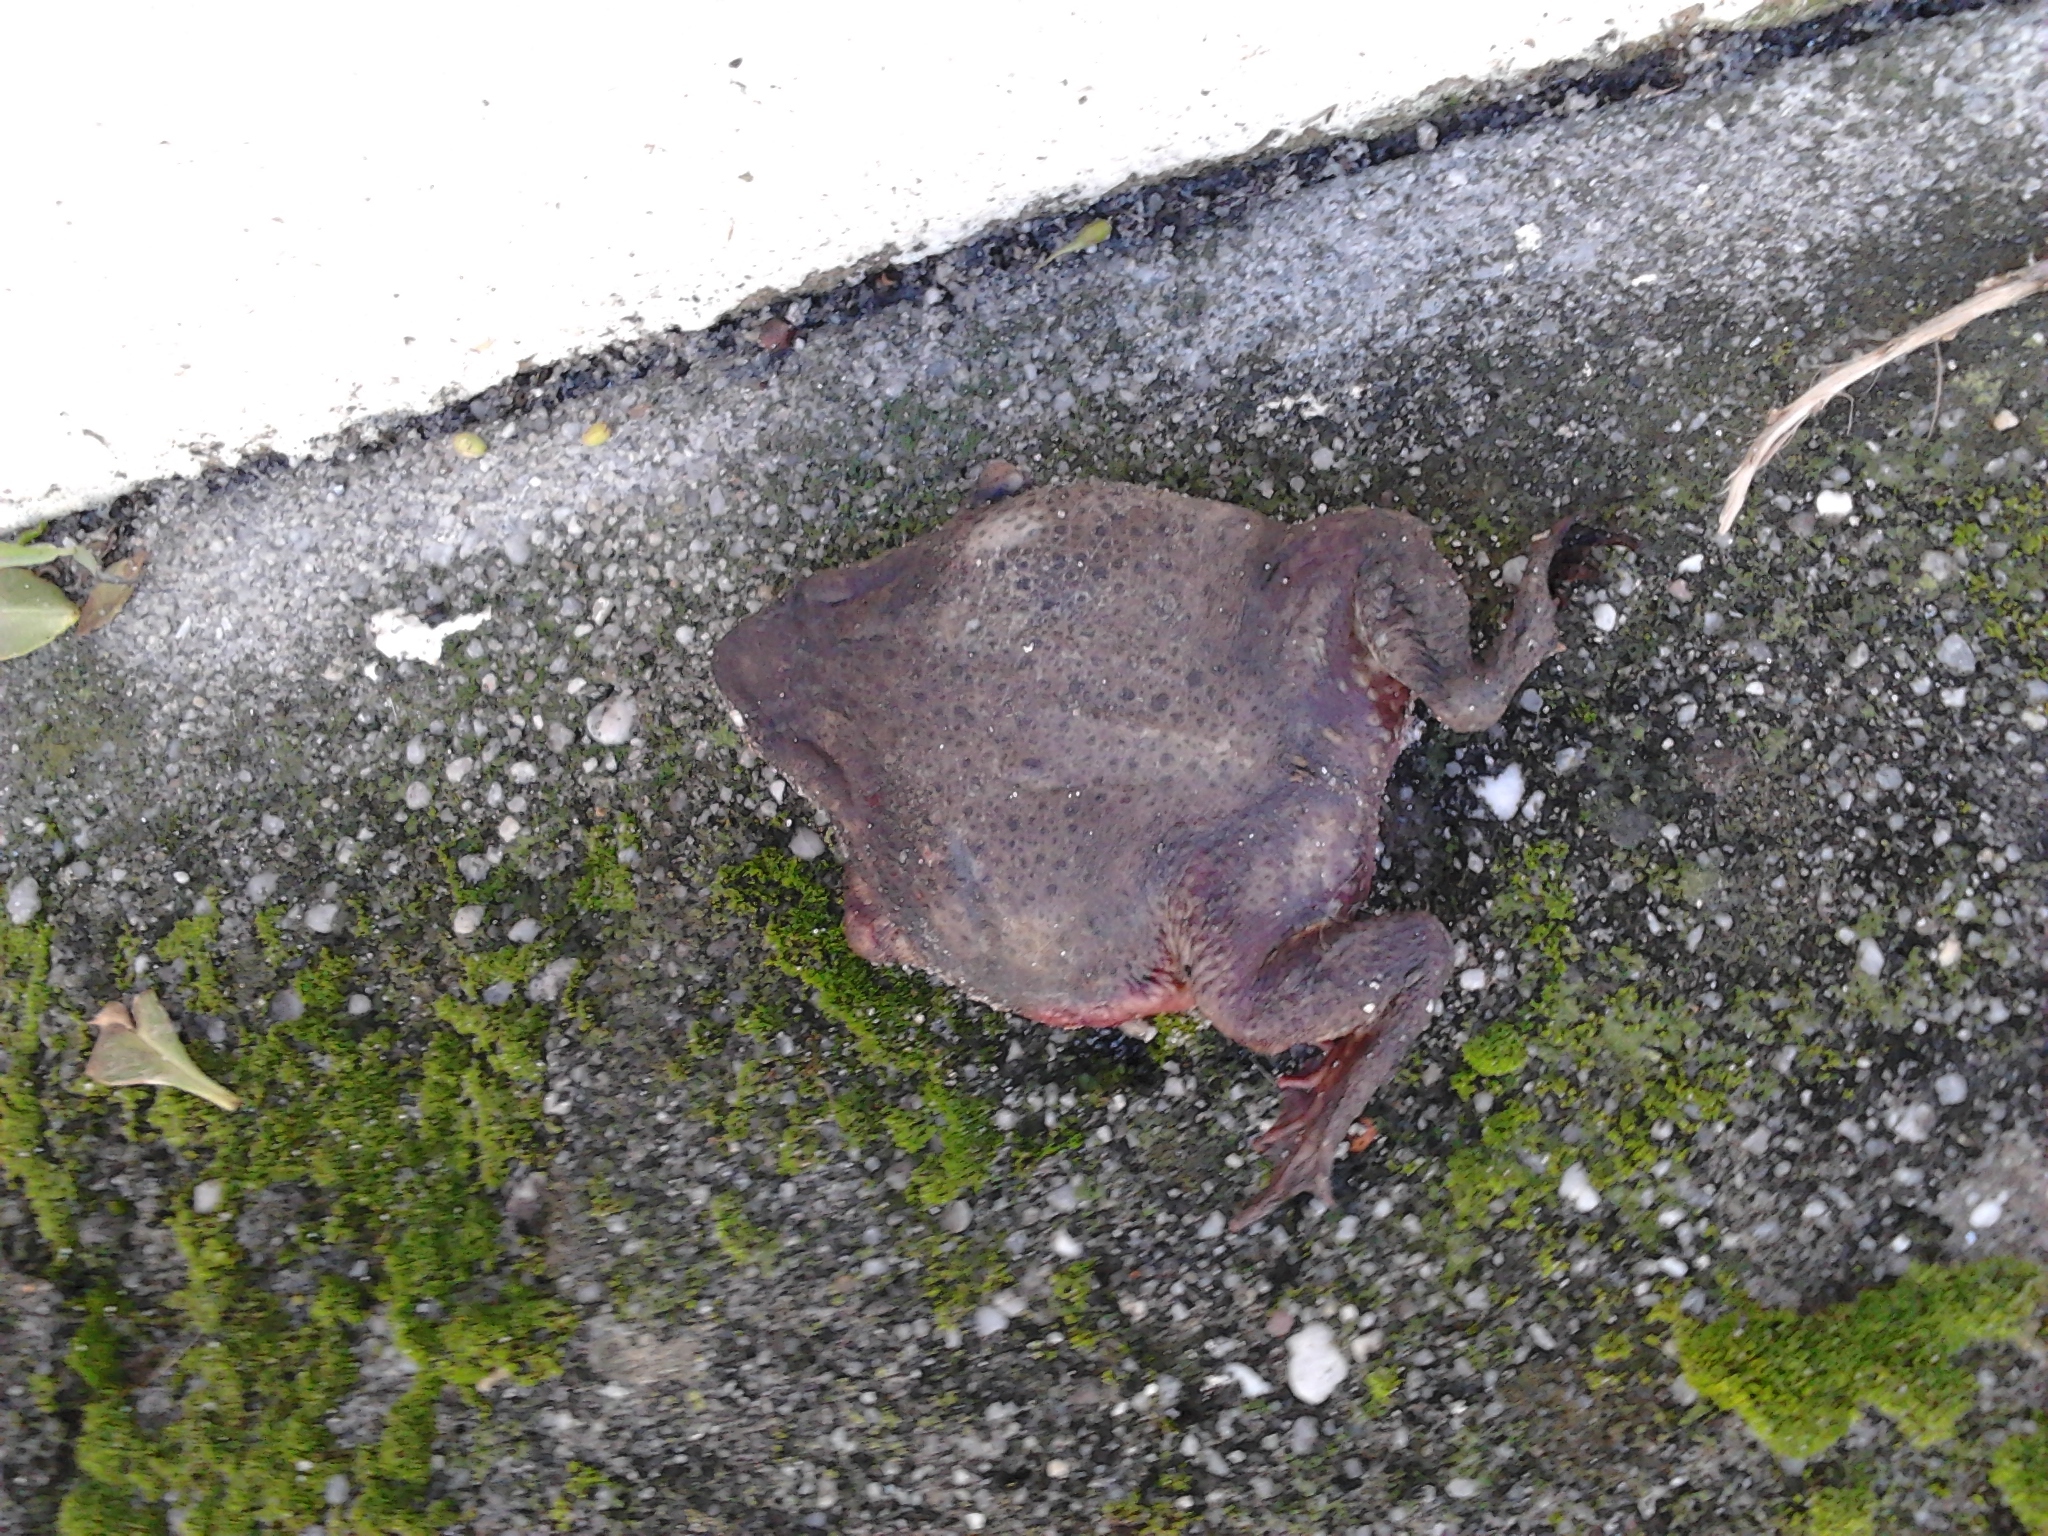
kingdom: Animalia
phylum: Chordata
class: Amphibia
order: Anura
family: Bufonidae
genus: Bufo
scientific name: Bufo spinosus
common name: Western common toad
